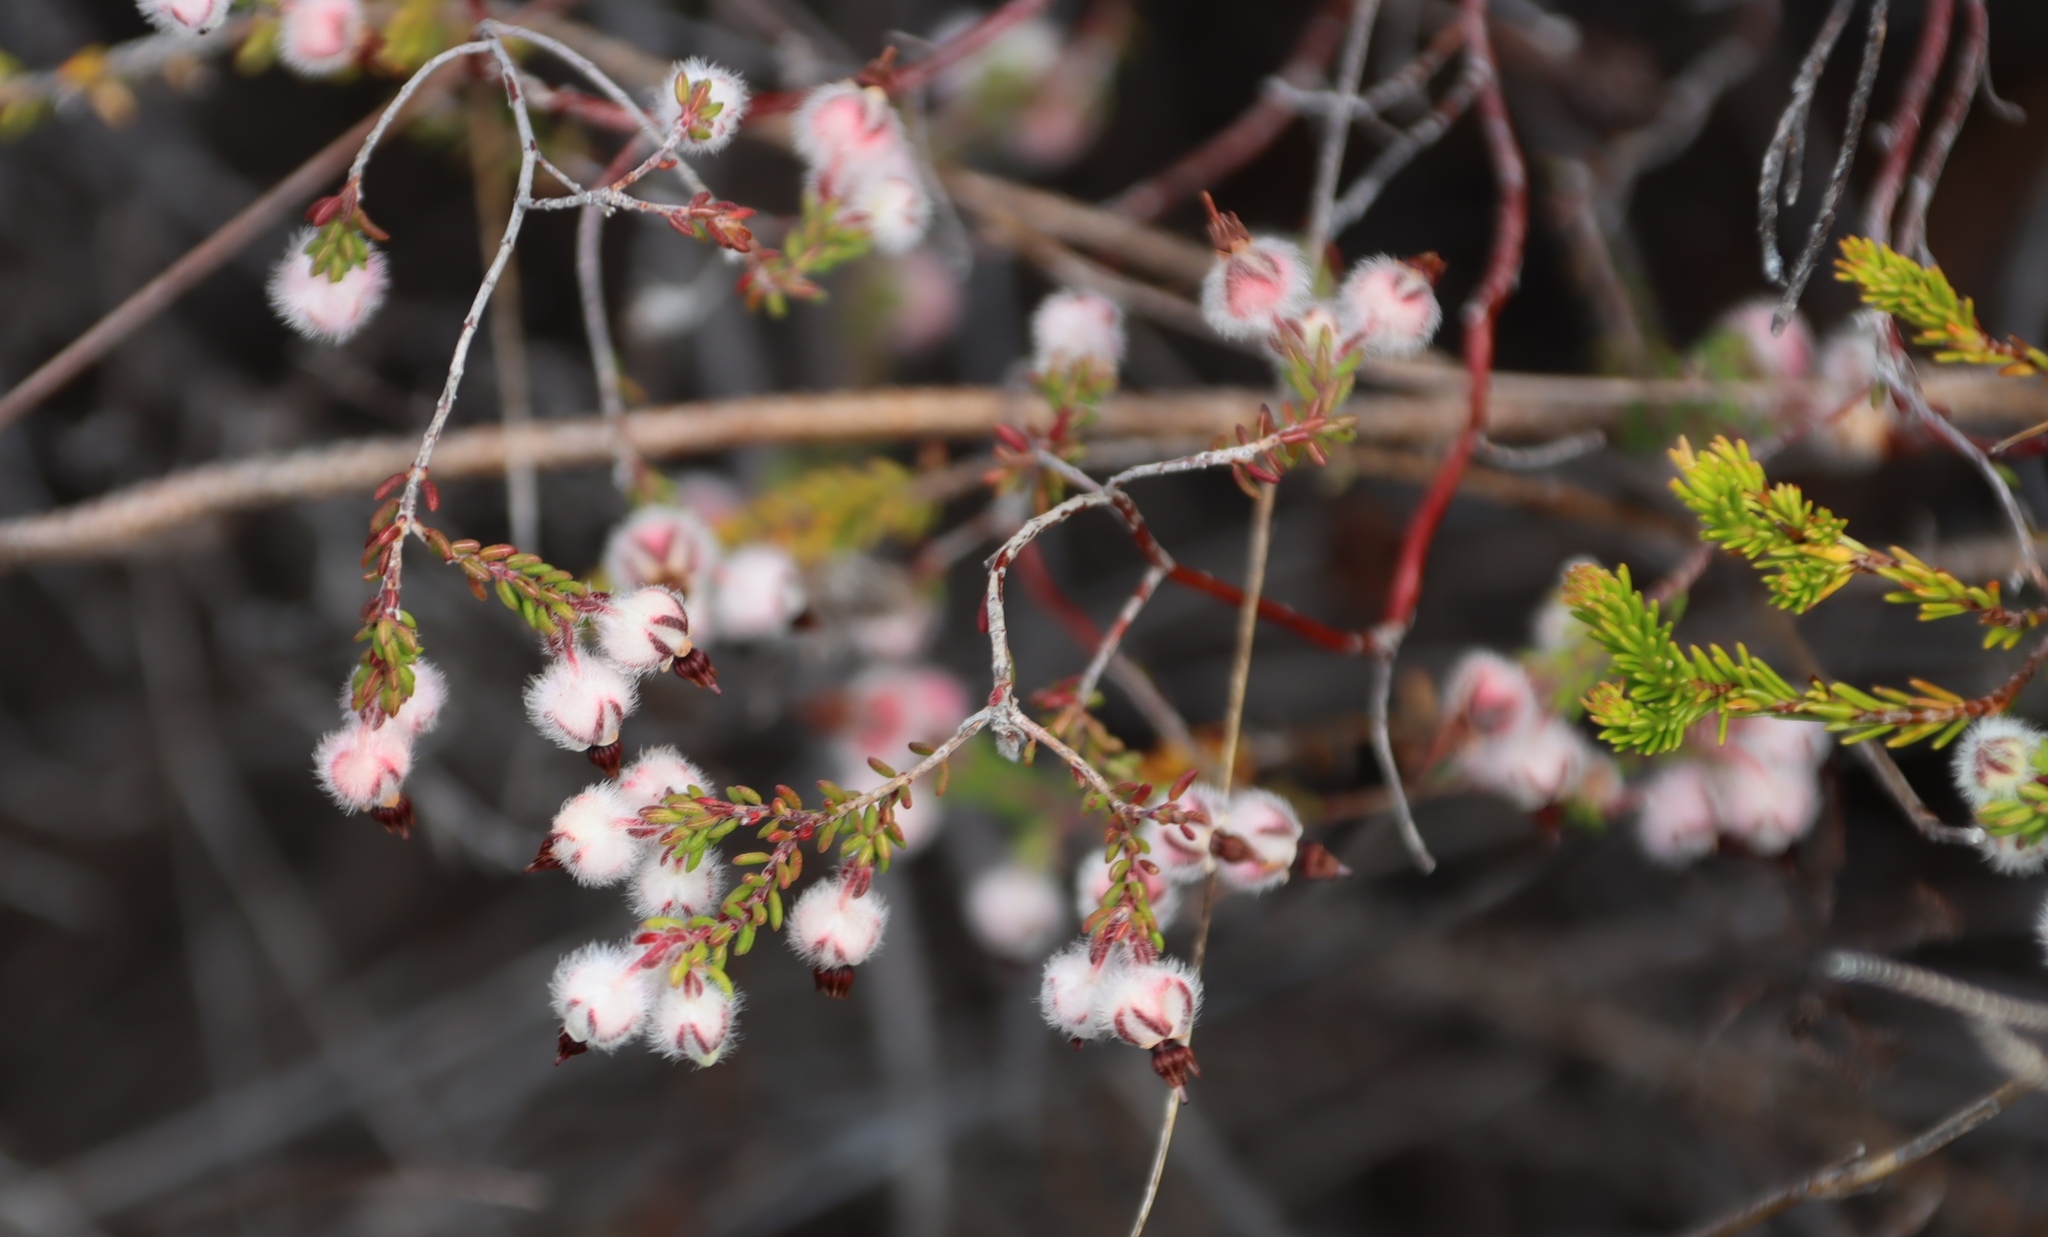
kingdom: Plantae
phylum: Tracheophyta
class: Magnoliopsida
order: Ericales
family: Ericaceae
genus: Erica
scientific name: Erica bruniades
